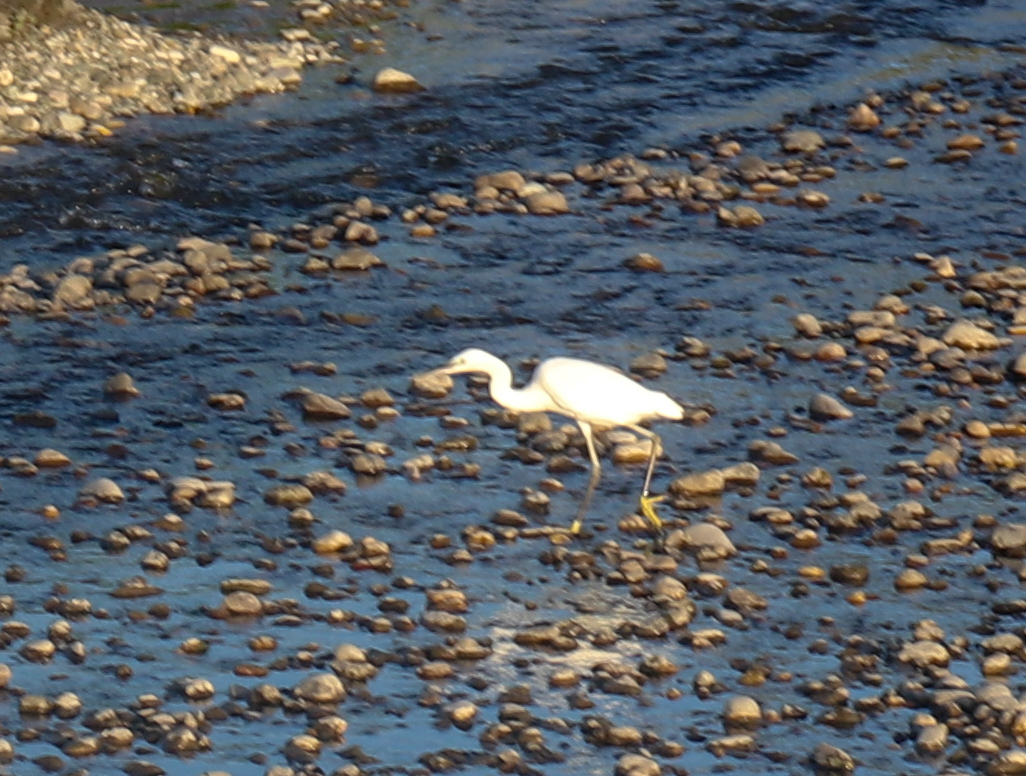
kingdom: Animalia
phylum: Chordata
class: Aves
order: Pelecaniformes
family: Ardeidae
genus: Egretta
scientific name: Egretta garzetta
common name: Little egret
